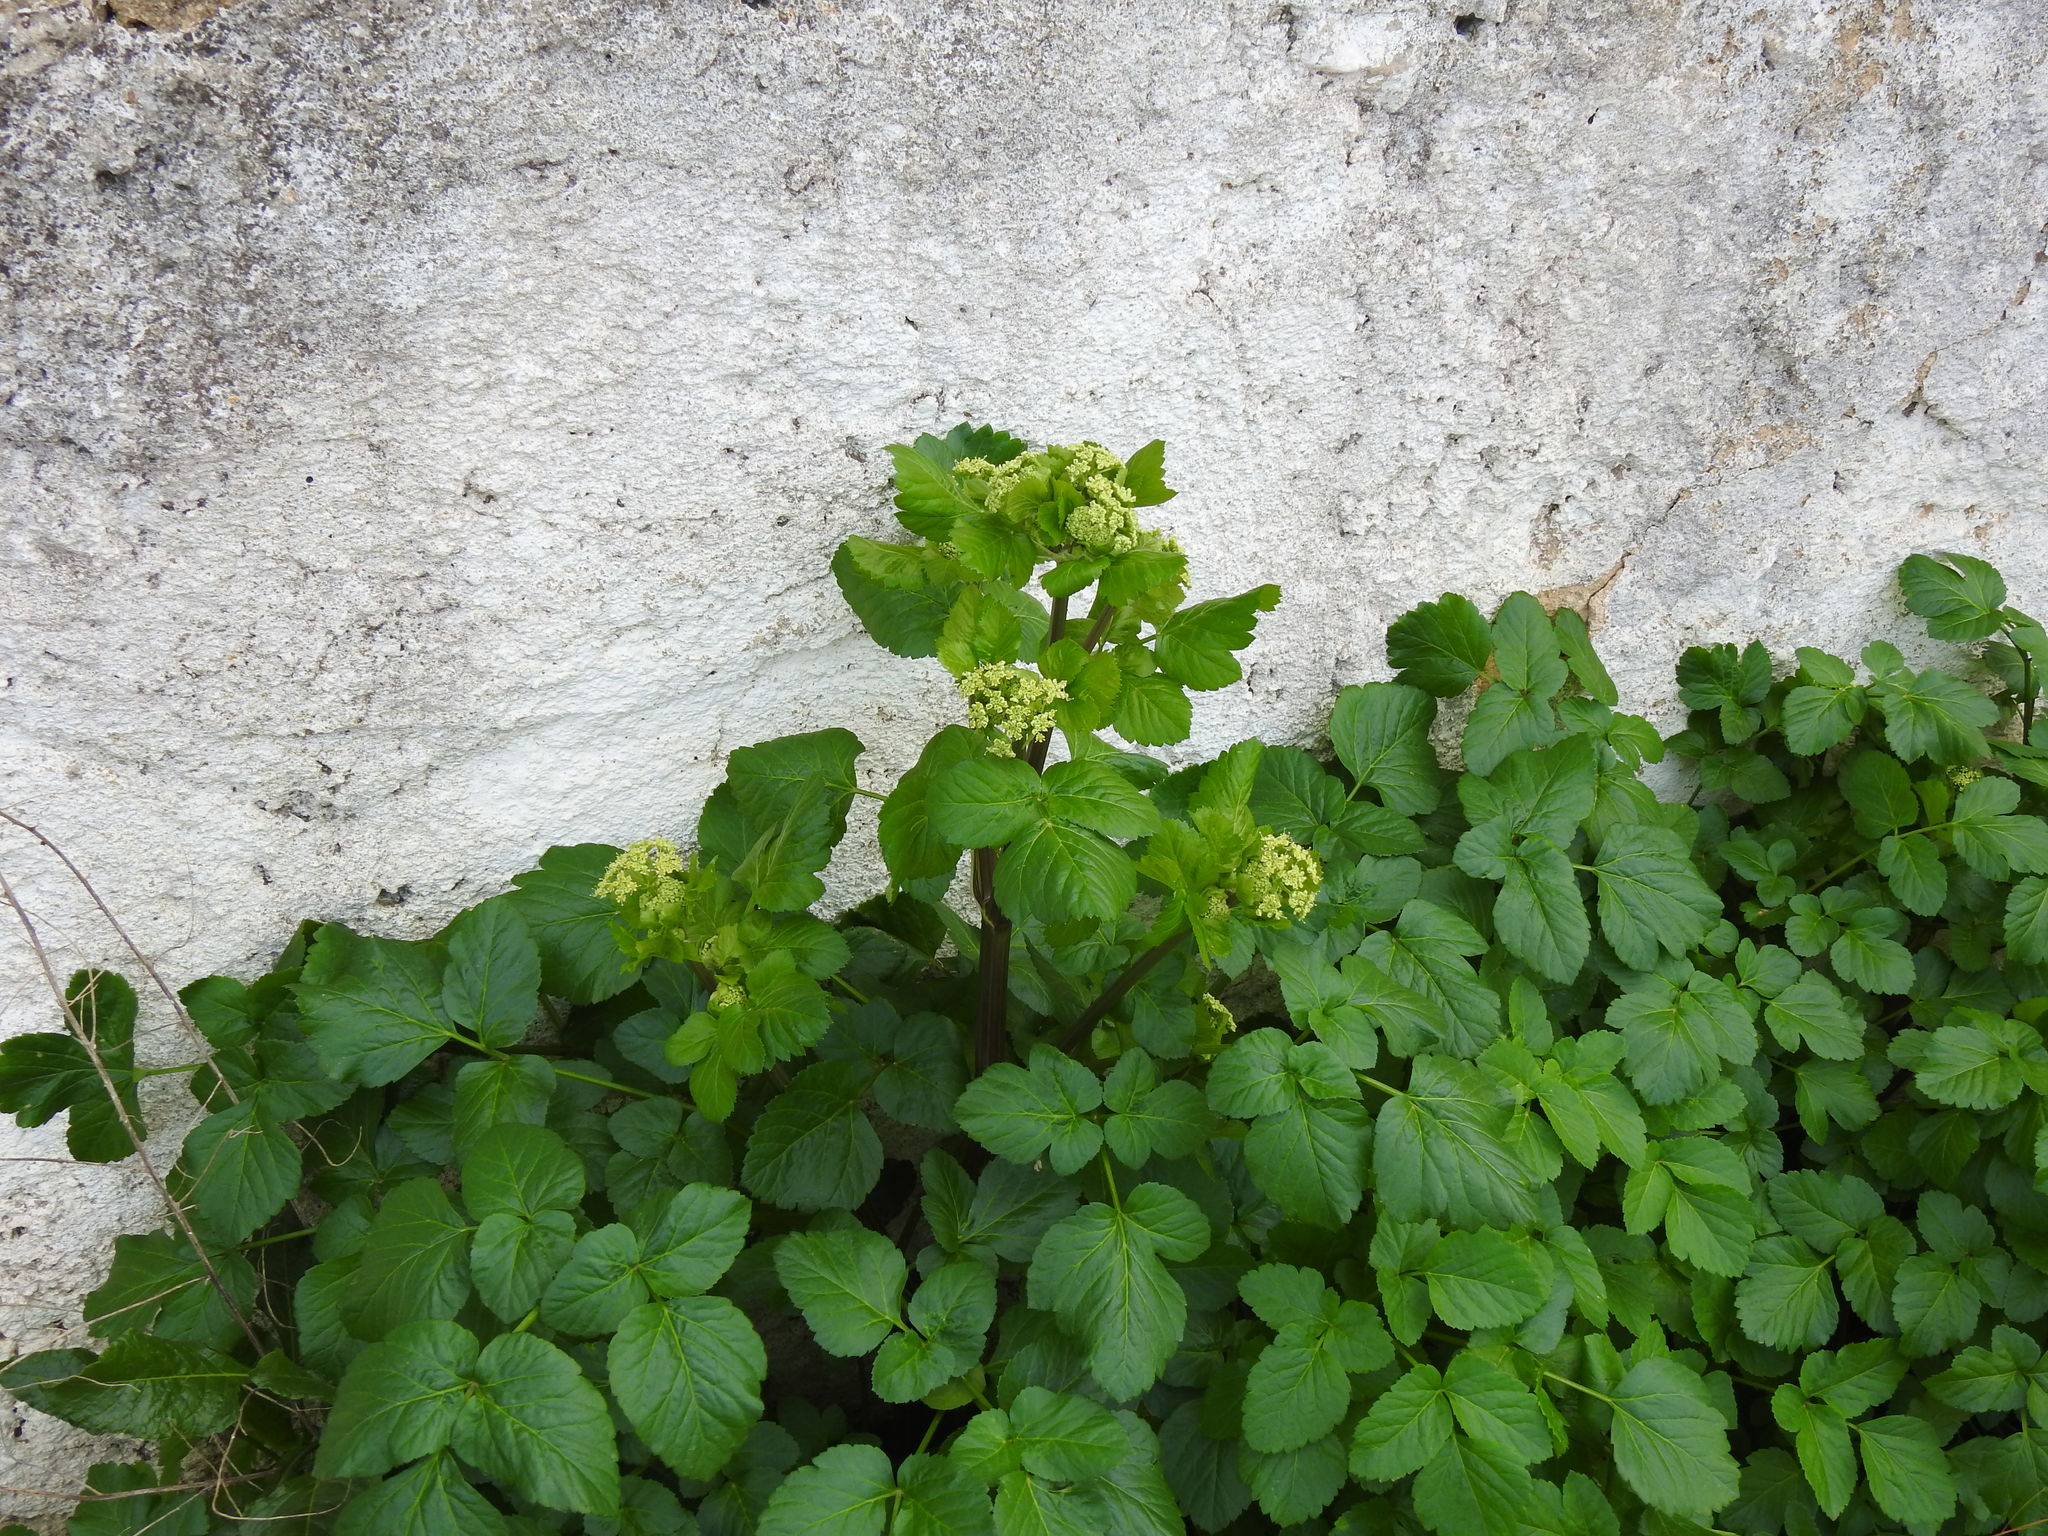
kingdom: Plantae
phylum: Tracheophyta
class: Magnoliopsida
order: Apiales
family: Apiaceae
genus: Smyrnium
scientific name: Smyrnium olusatrum
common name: Alexanders
